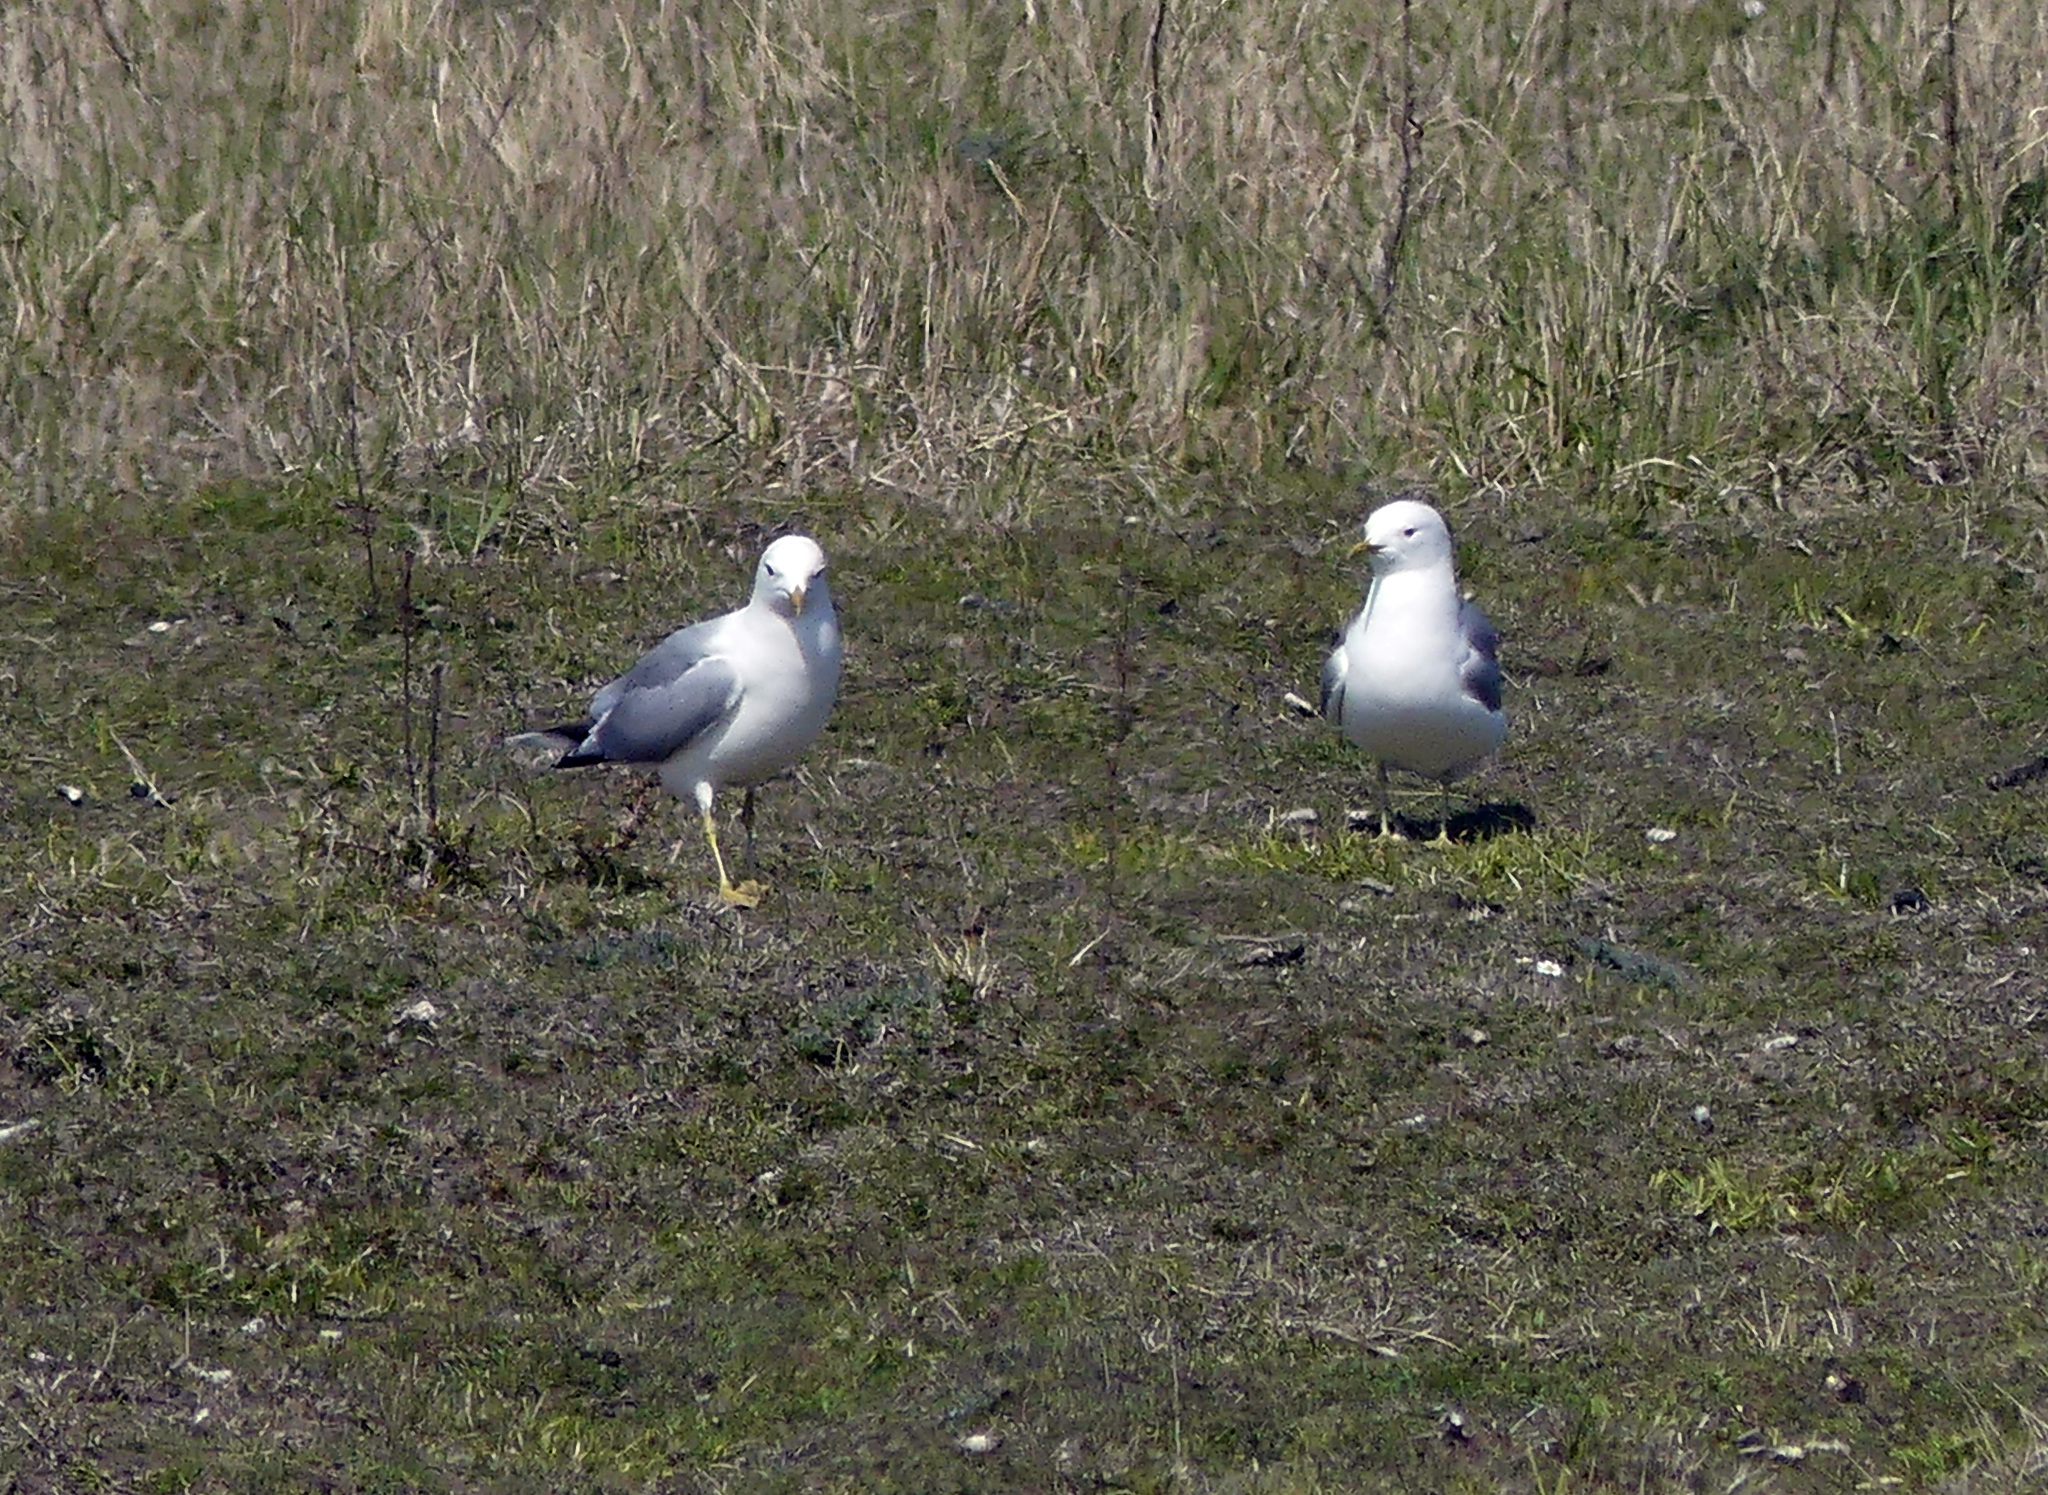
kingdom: Animalia
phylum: Chordata
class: Aves
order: Charadriiformes
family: Laridae
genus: Larus
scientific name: Larus canus
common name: Mew gull
